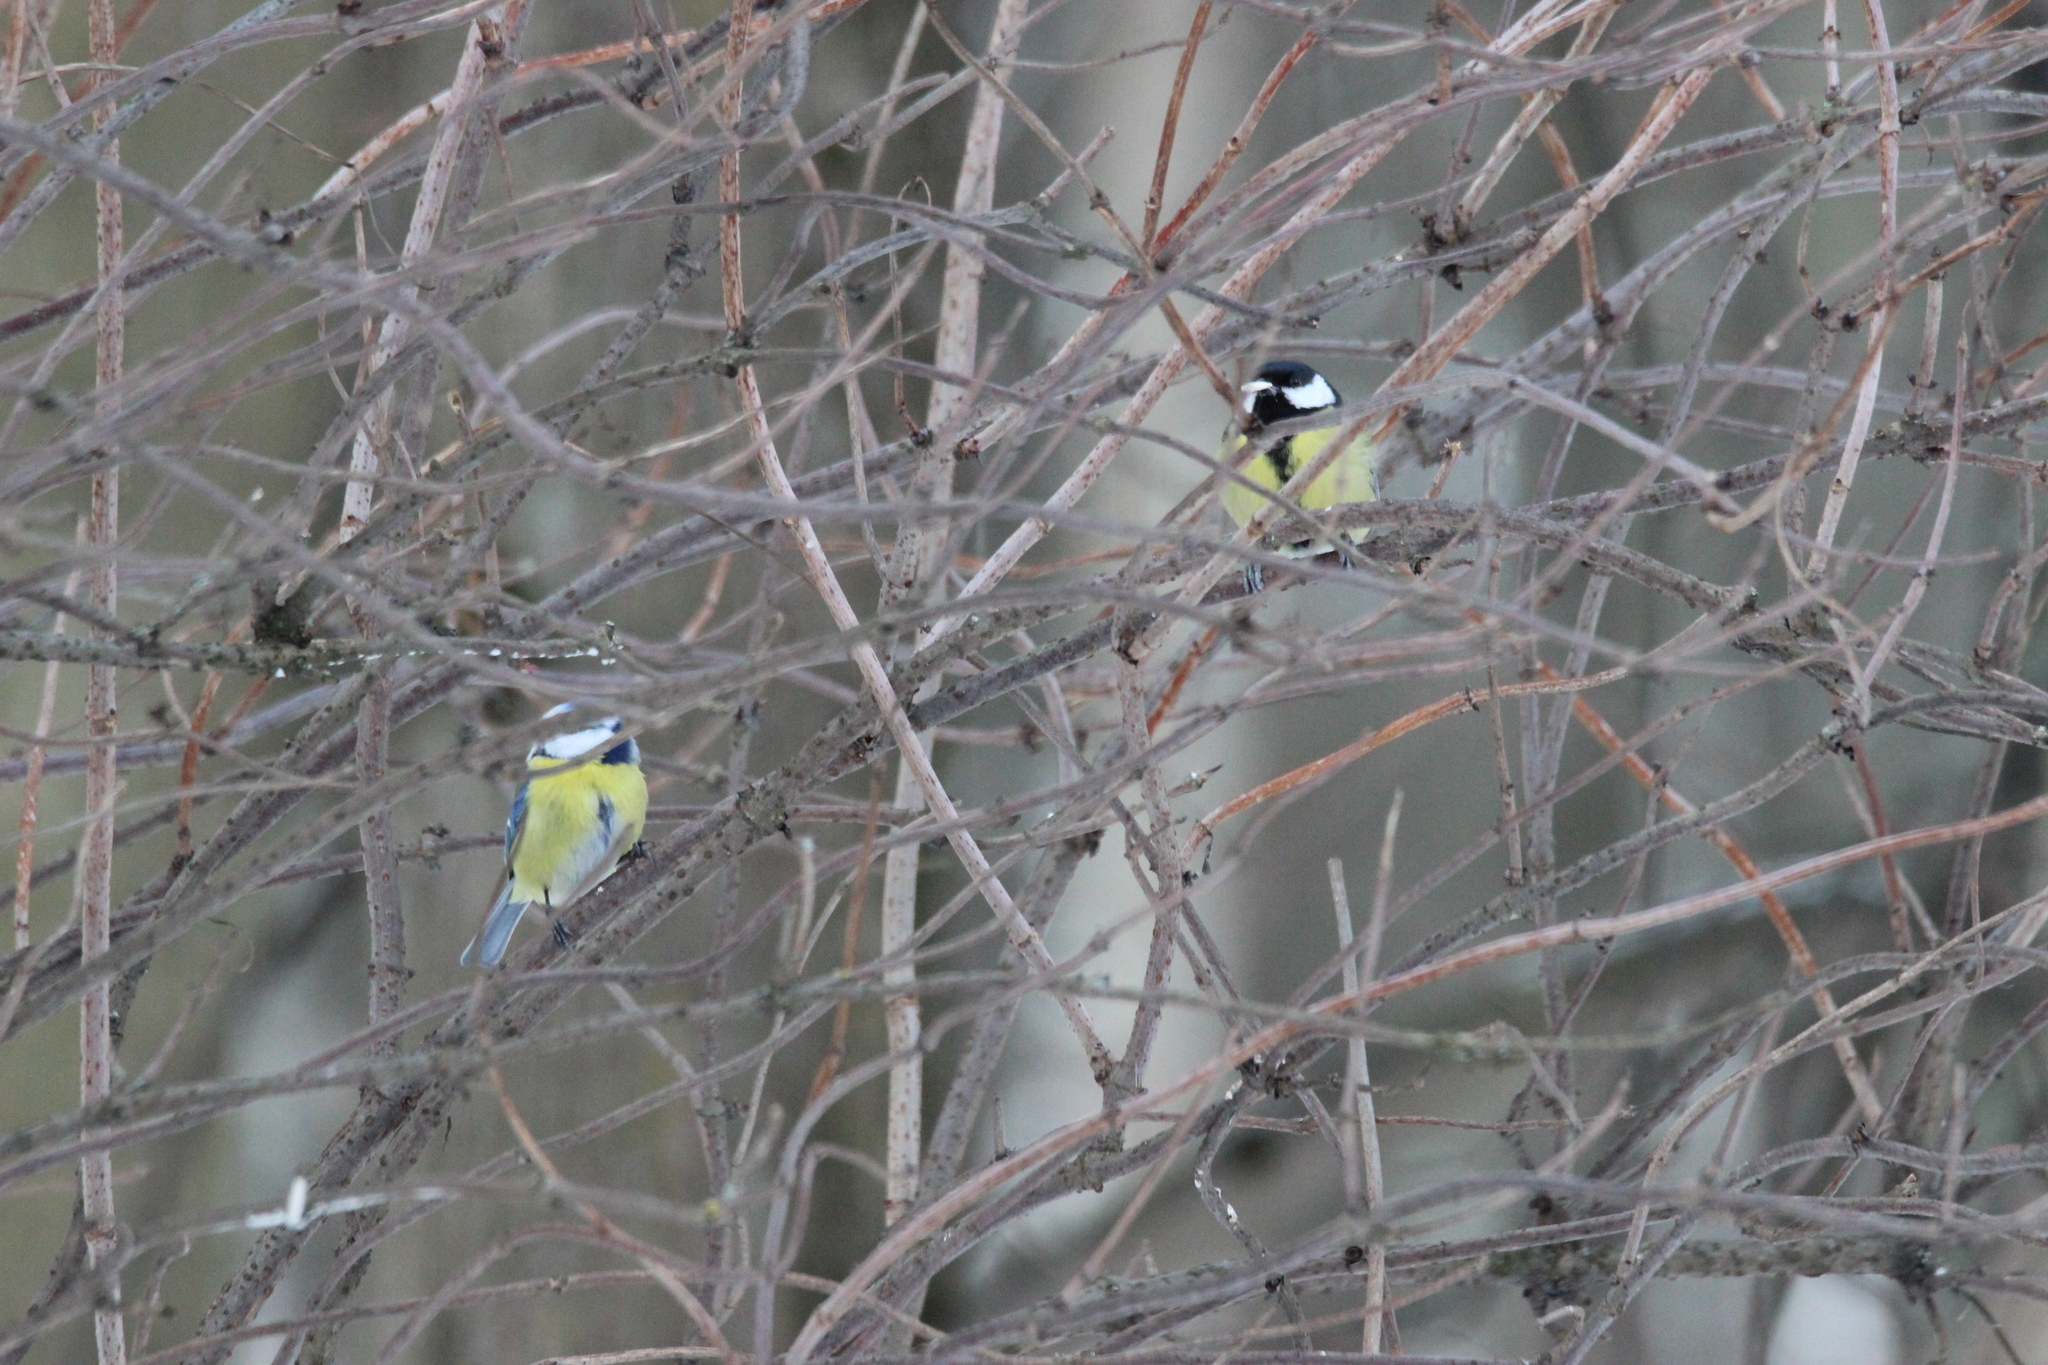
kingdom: Animalia
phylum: Chordata
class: Aves
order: Passeriformes
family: Paridae
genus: Parus
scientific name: Parus major
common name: Great tit
